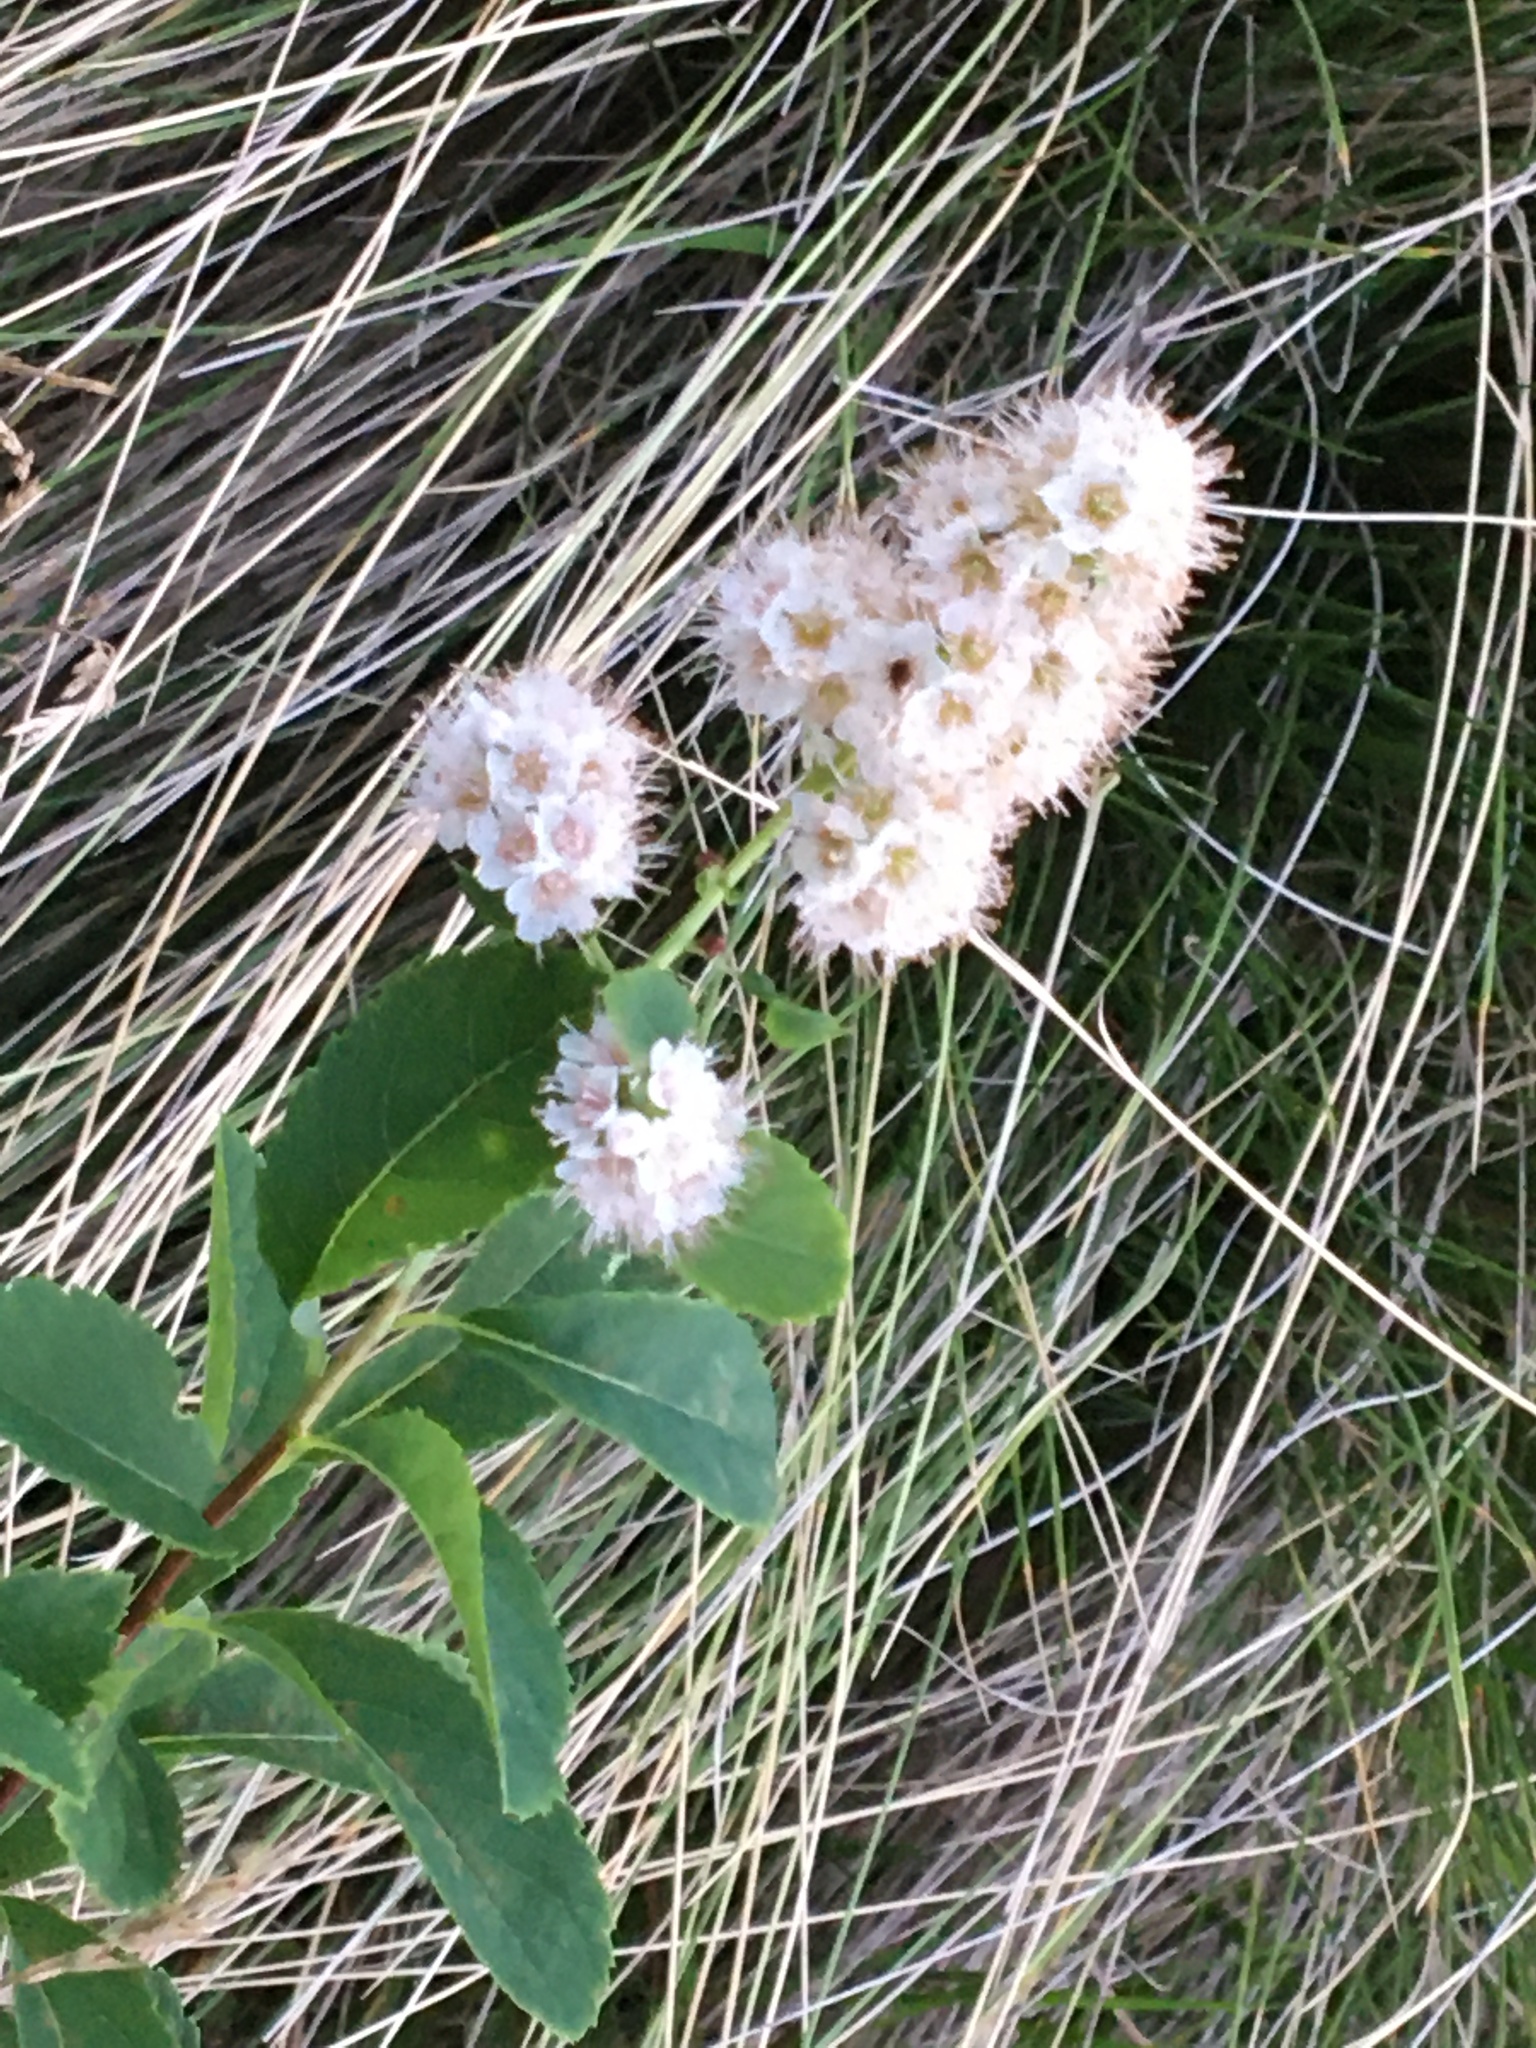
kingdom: Plantae
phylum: Tracheophyta
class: Magnoliopsida
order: Rosales
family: Rosaceae
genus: Spiraea
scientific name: Spiraea alba
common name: Pale bridewort
